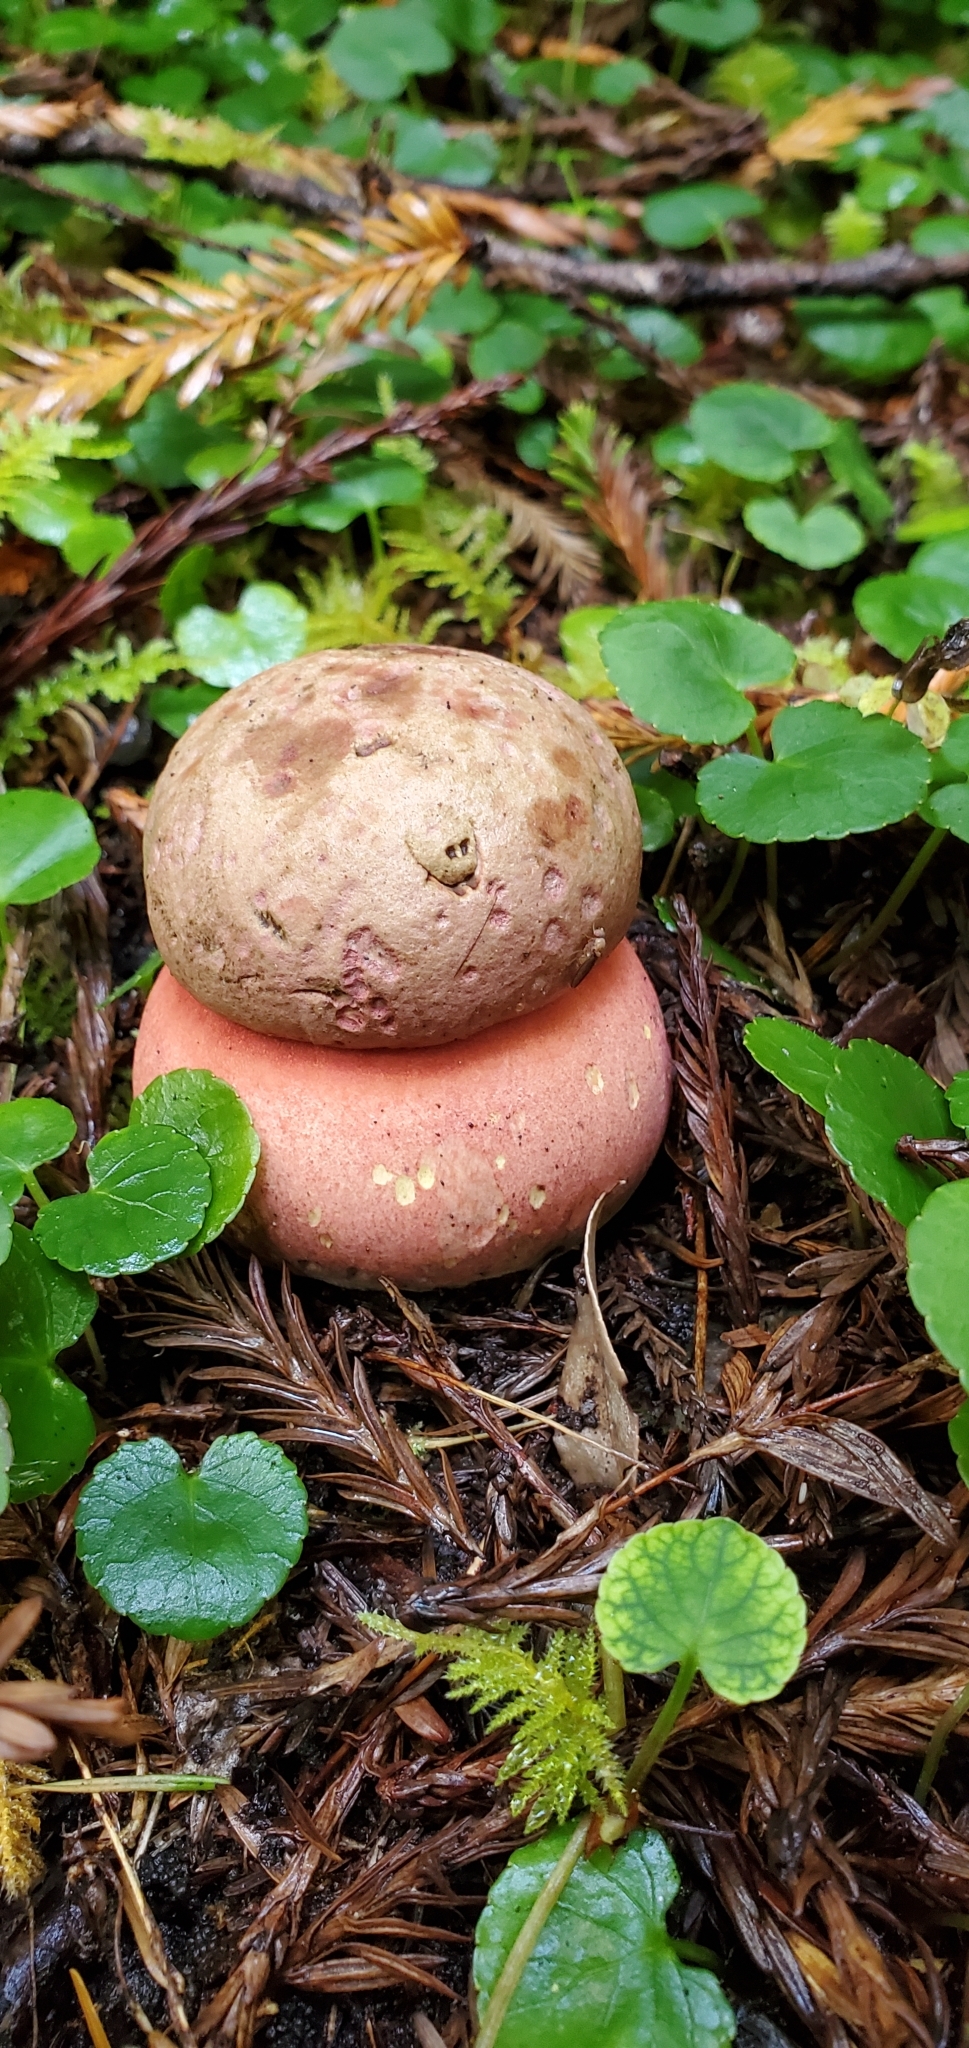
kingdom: Fungi
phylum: Basidiomycota
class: Agaricomycetes
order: Boletales
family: Boletaceae
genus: Rubroboletus
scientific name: Rubroboletus pulcherrimus
